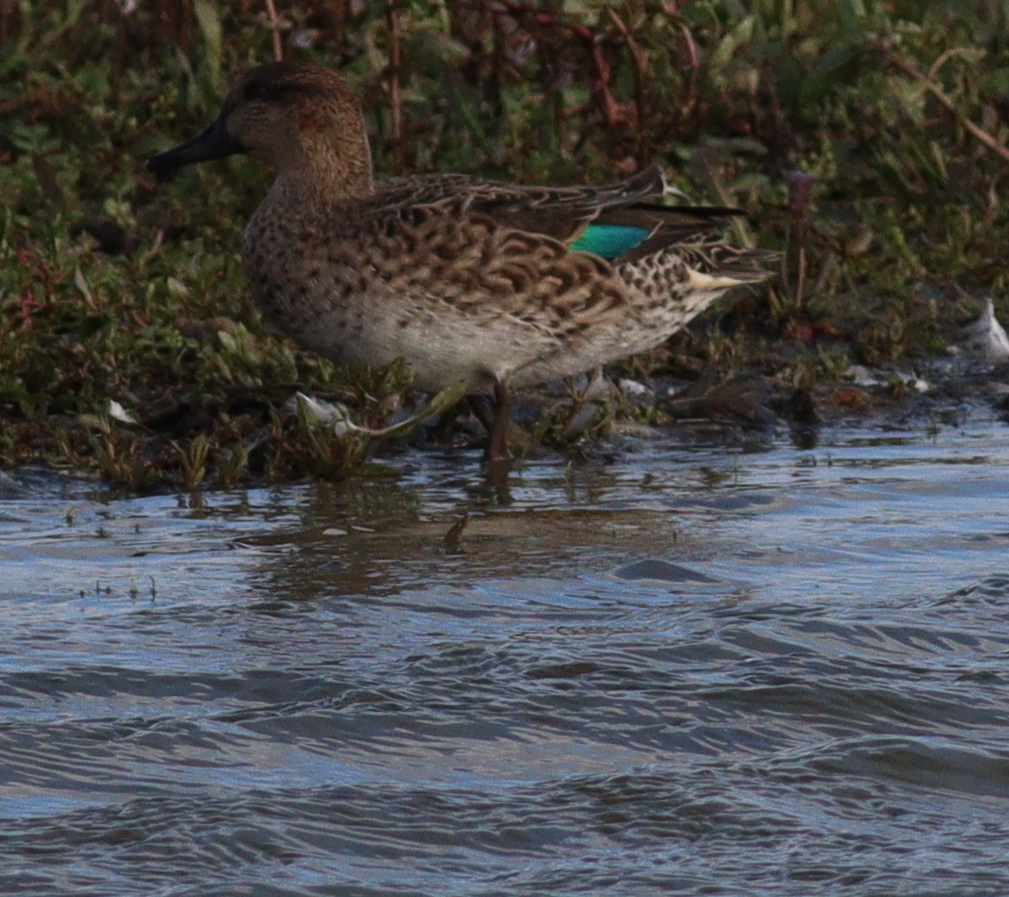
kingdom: Animalia
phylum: Chordata
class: Aves
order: Anseriformes
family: Anatidae
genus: Anas
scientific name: Anas crecca
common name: Eurasian teal
